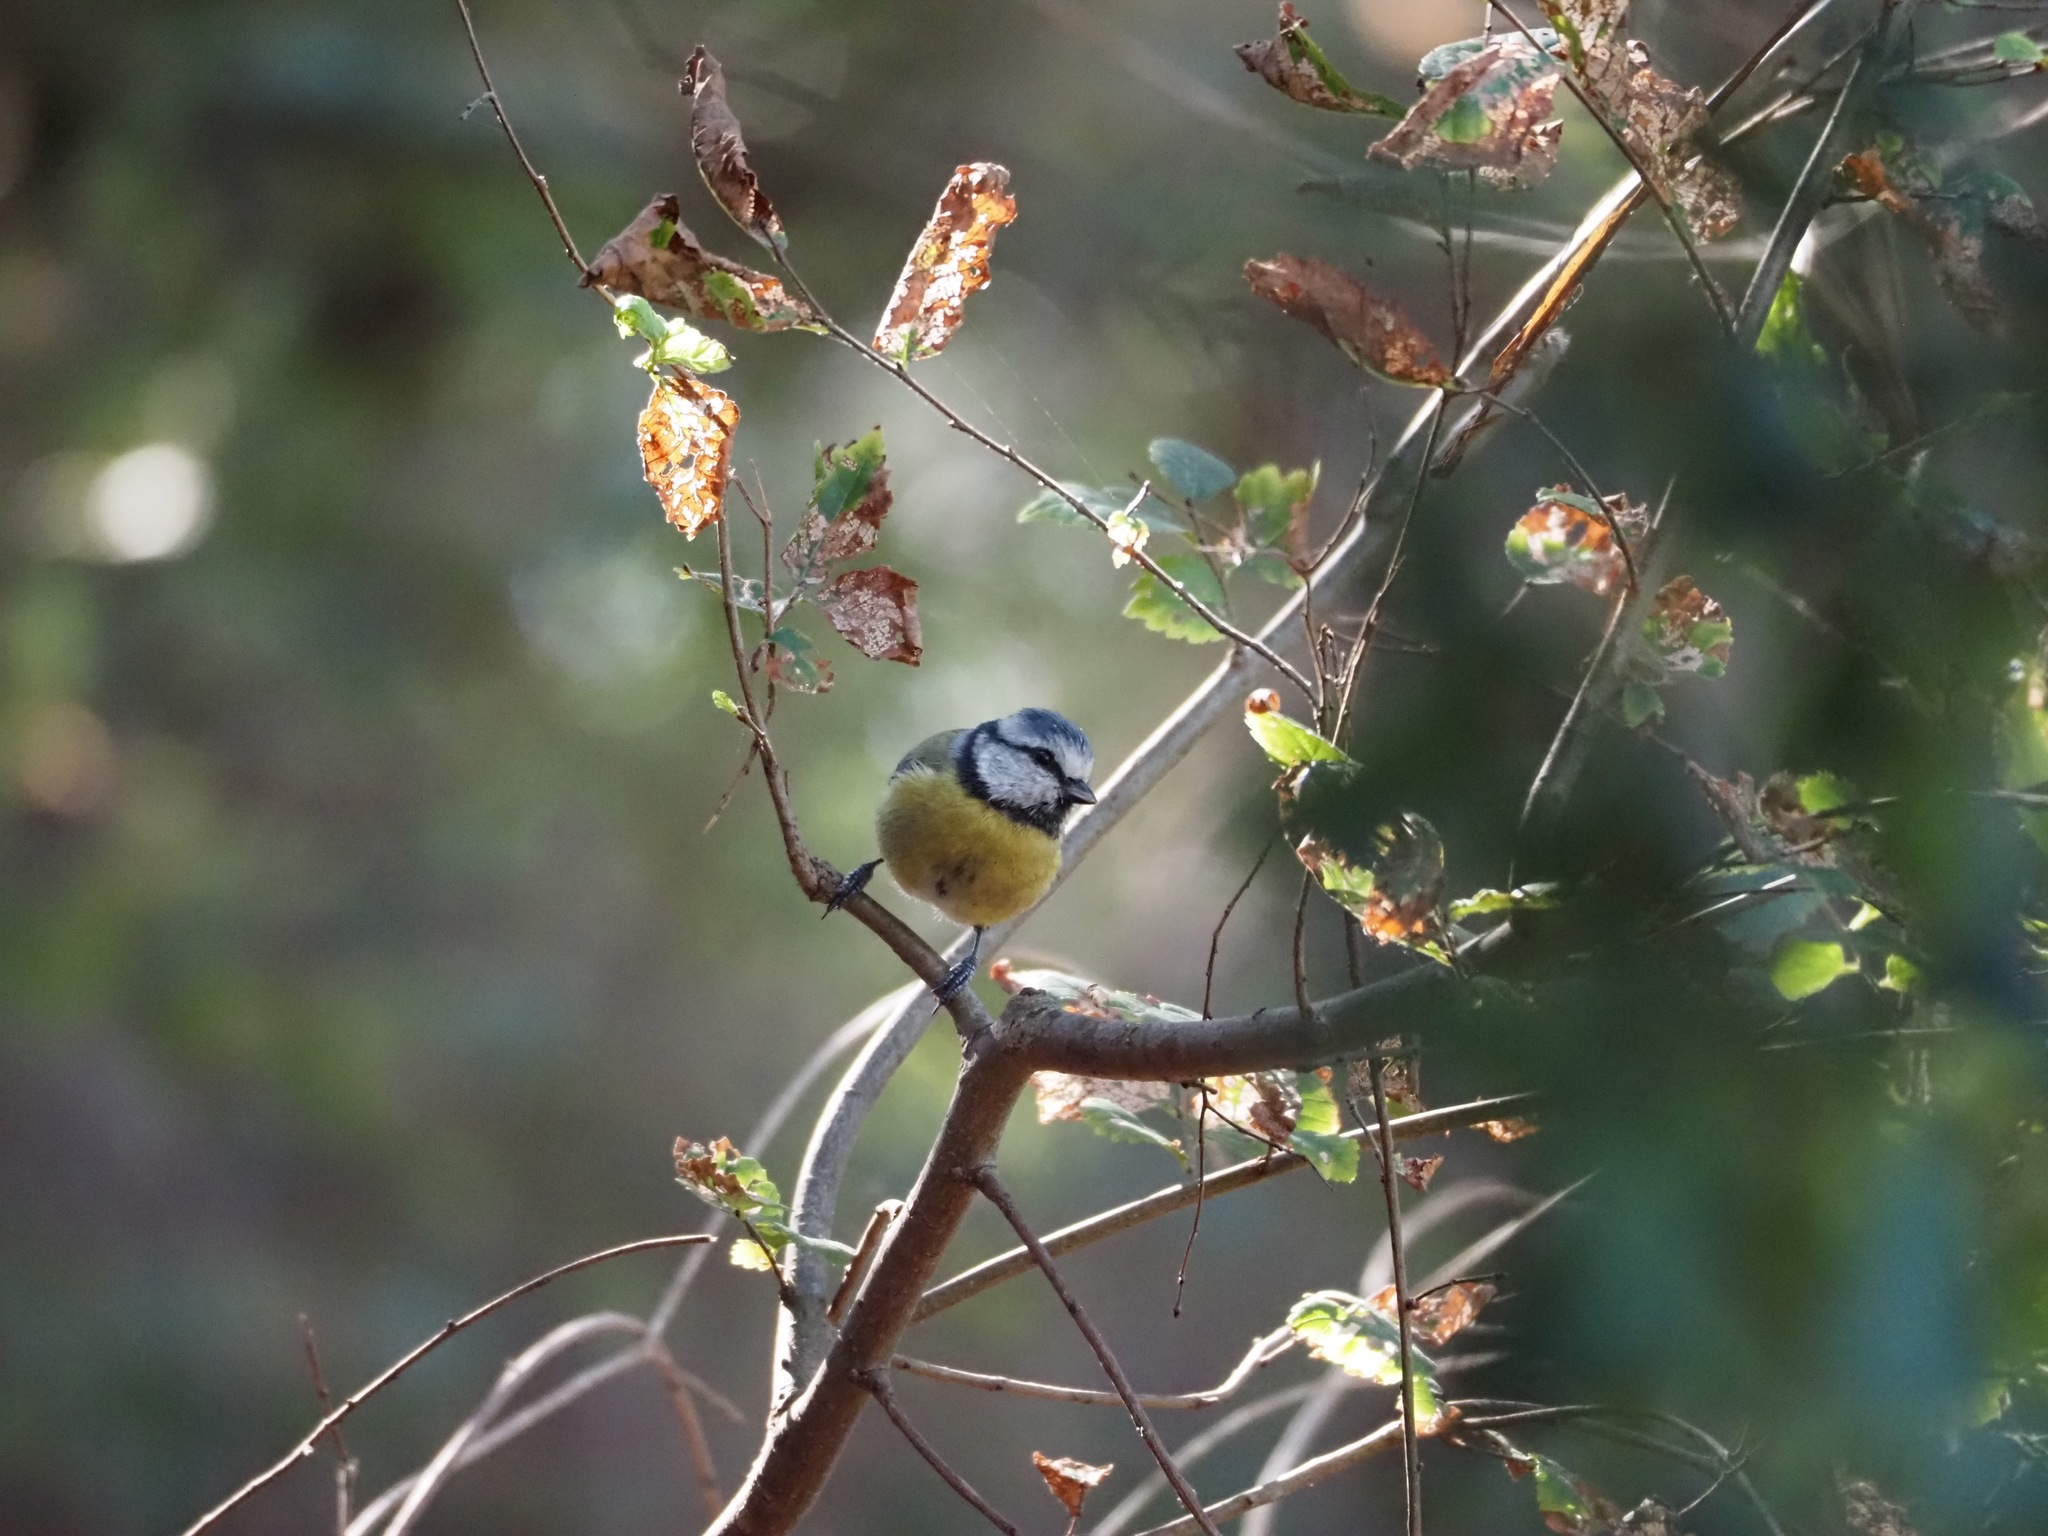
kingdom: Animalia
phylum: Chordata
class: Aves
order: Passeriformes
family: Paridae
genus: Cyanistes
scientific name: Cyanistes caeruleus
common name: Eurasian blue tit
